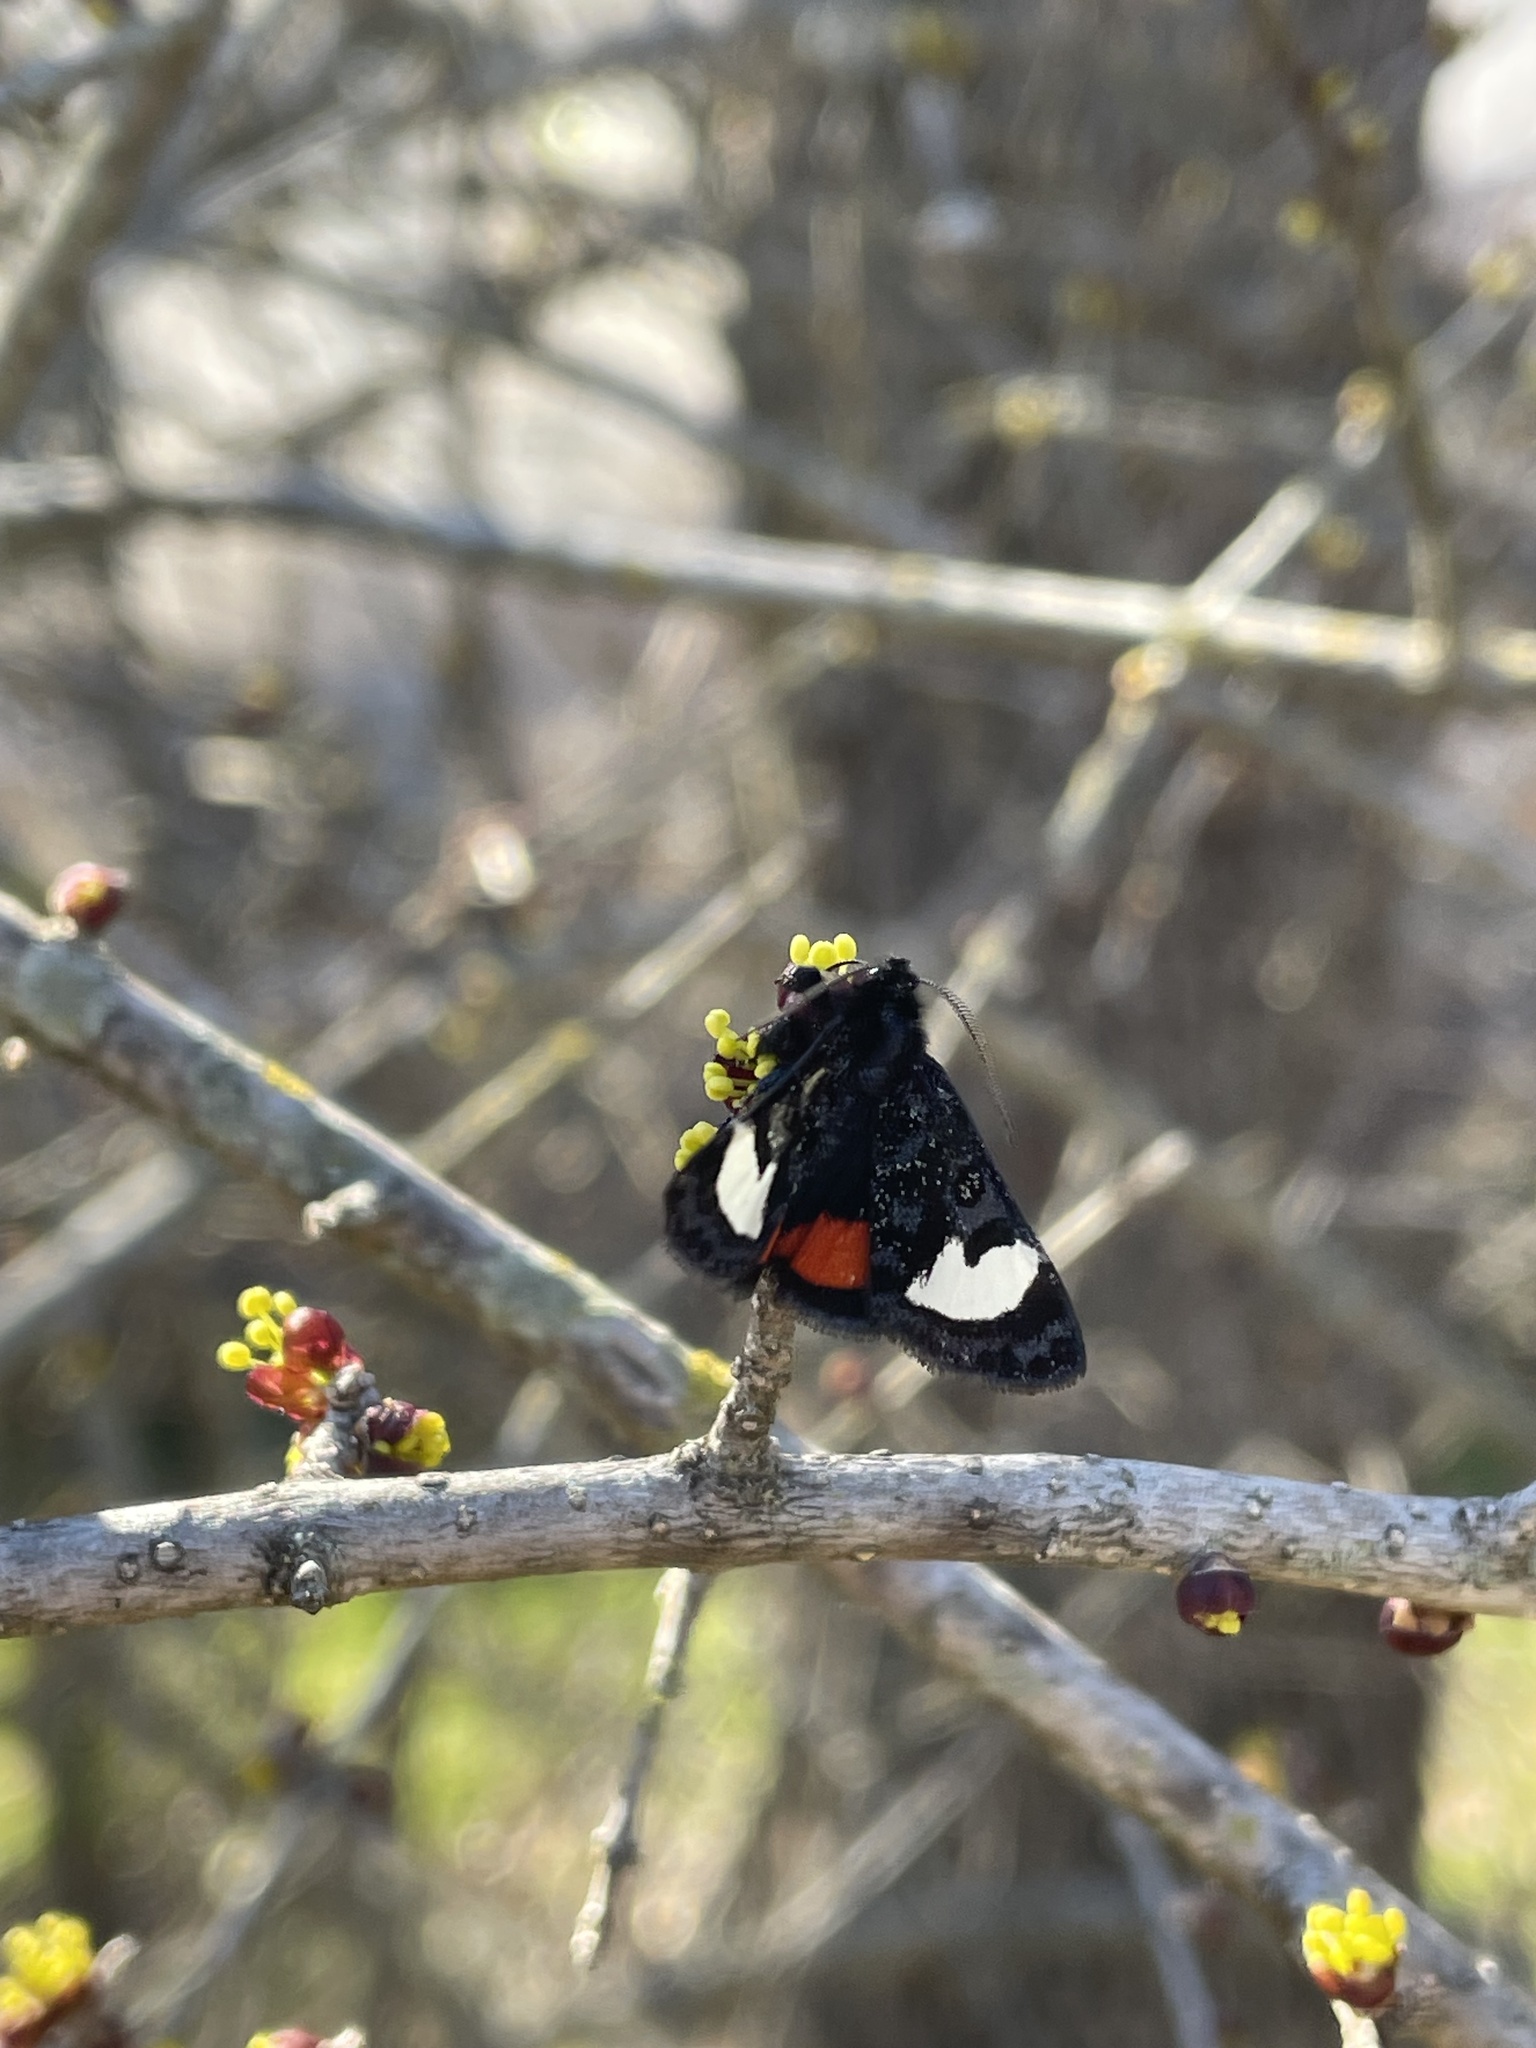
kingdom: Animalia
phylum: Arthropoda
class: Insecta
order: Lepidoptera
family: Noctuidae
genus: Psychomorpha
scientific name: Psychomorpha epimenis
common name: Grapevine epimenis moth
